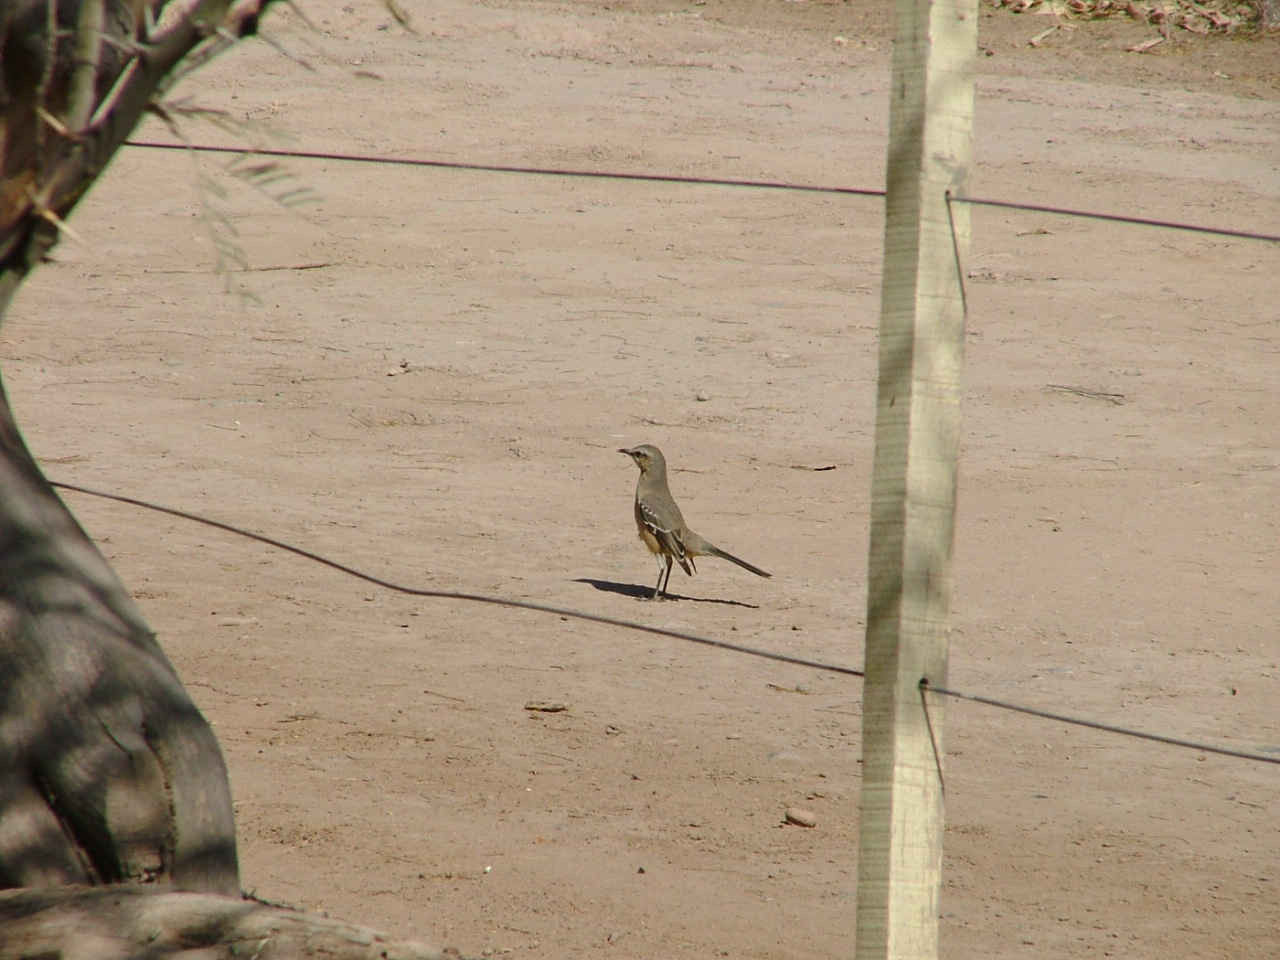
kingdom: Animalia
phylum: Chordata
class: Aves
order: Passeriformes
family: Mimidae
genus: Mimus
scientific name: Mimus saturninus
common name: Chalk-browed mockingbird
